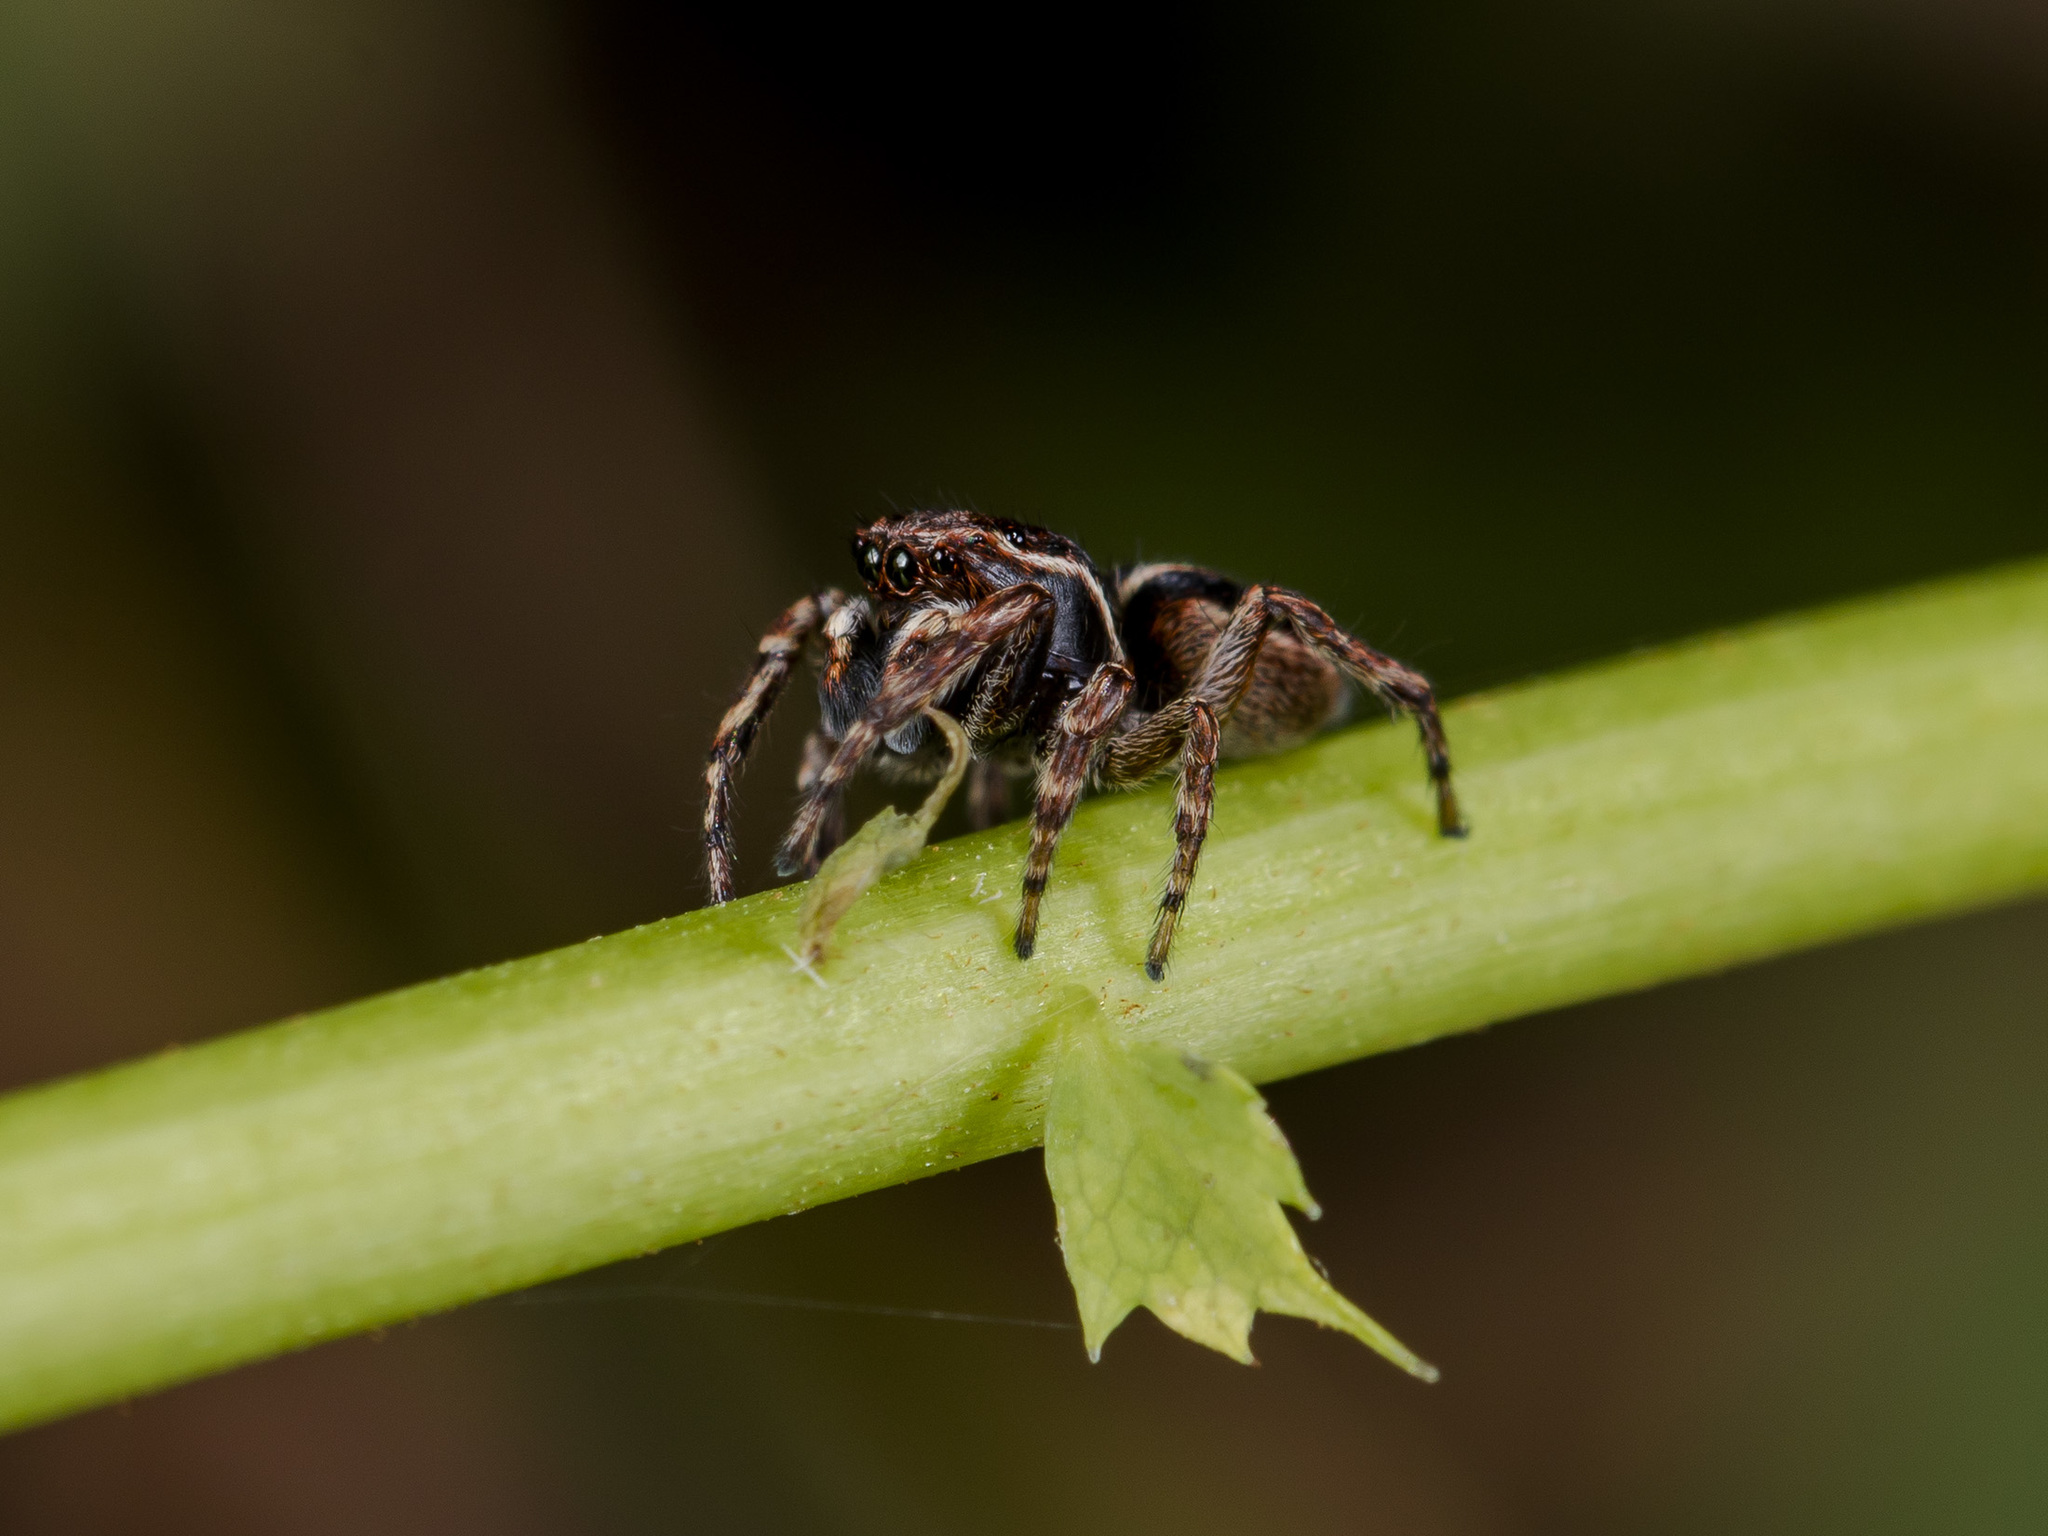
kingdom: Animalia
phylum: Arthropoda
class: Arachnida
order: Araneae
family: Salticidae
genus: Attulus
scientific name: Attulus monstrabilis
